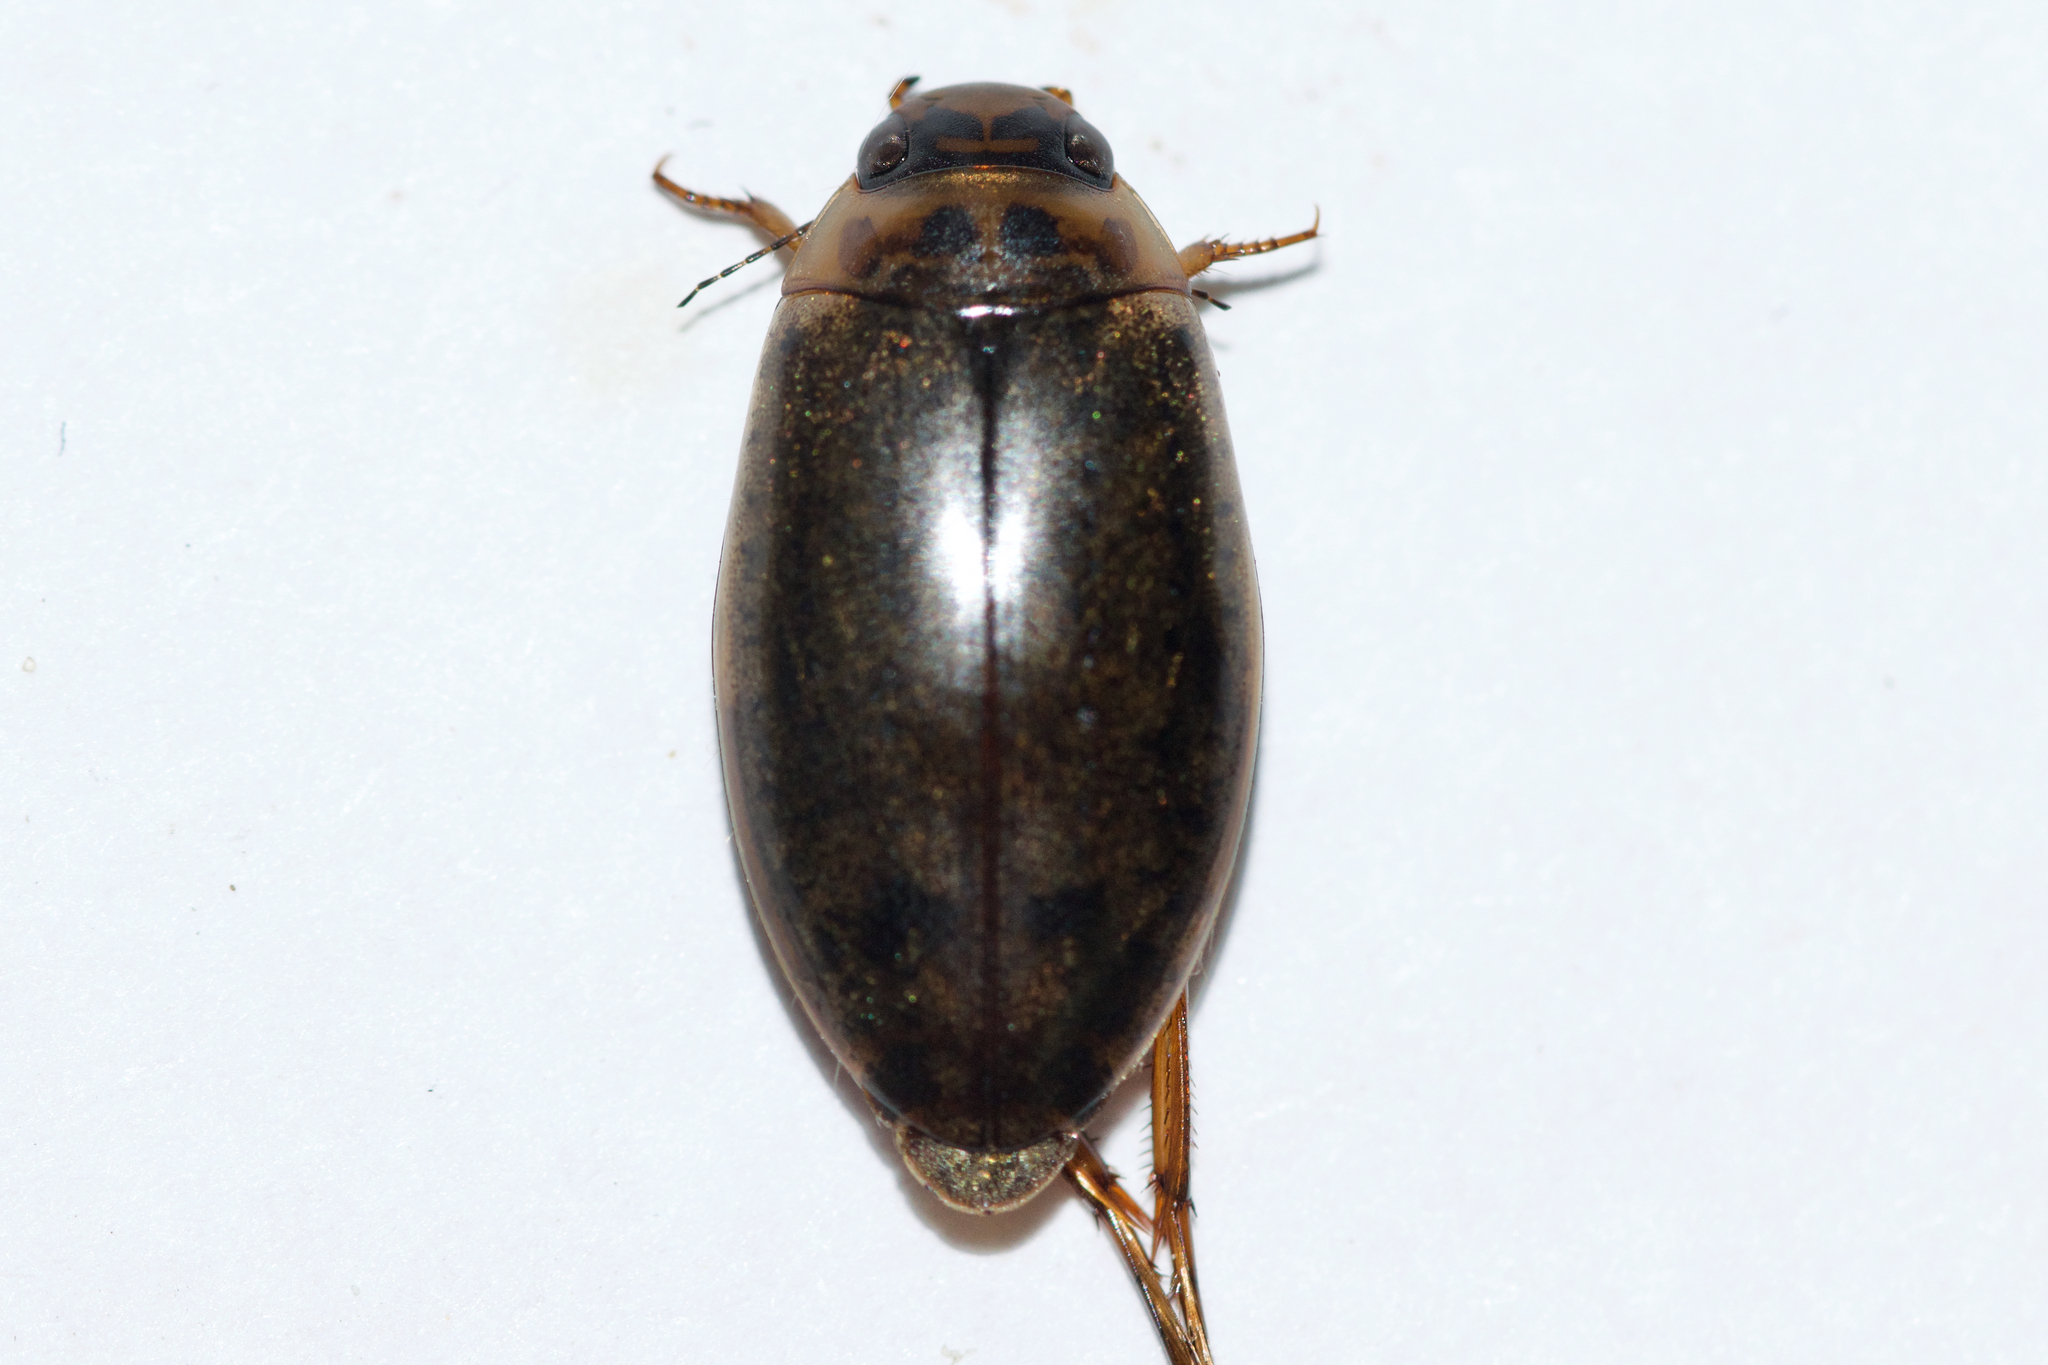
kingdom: Animalia
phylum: Arthropoda
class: Insecta
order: Coleoptera
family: Dytiscidae
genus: Rhantus
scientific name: Rhantus binotatus
